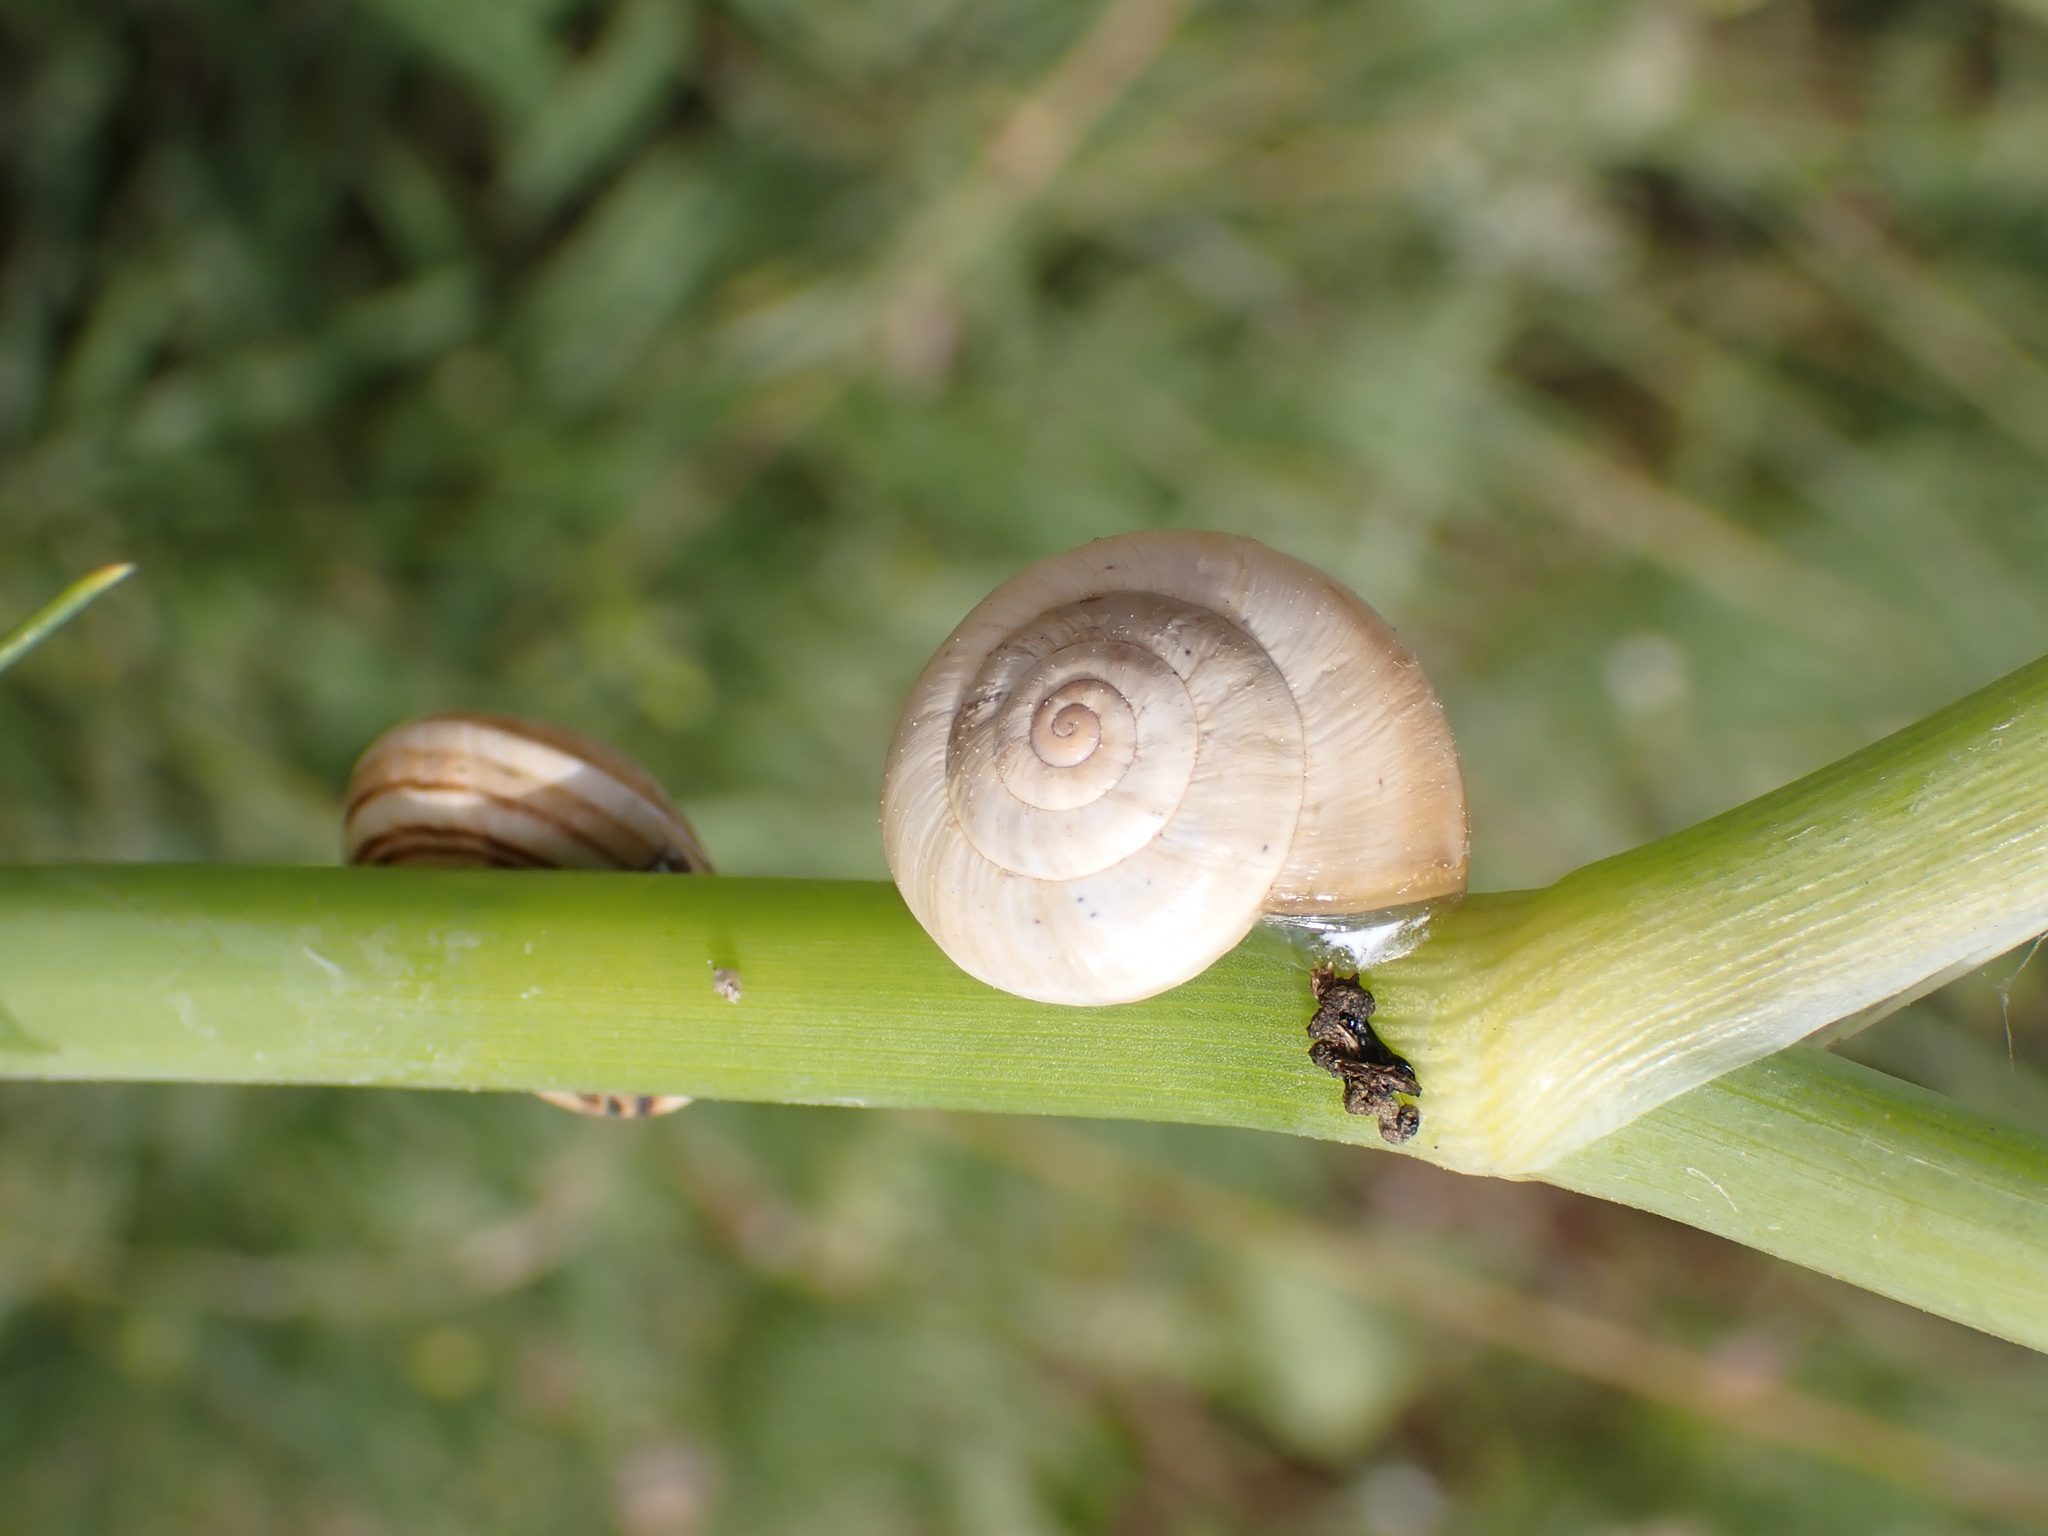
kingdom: Animalia
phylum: Mollusca
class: Gastropoda
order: Stylommatophora
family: Helicidae
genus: Theba
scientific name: Theba pisana
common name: White snail
